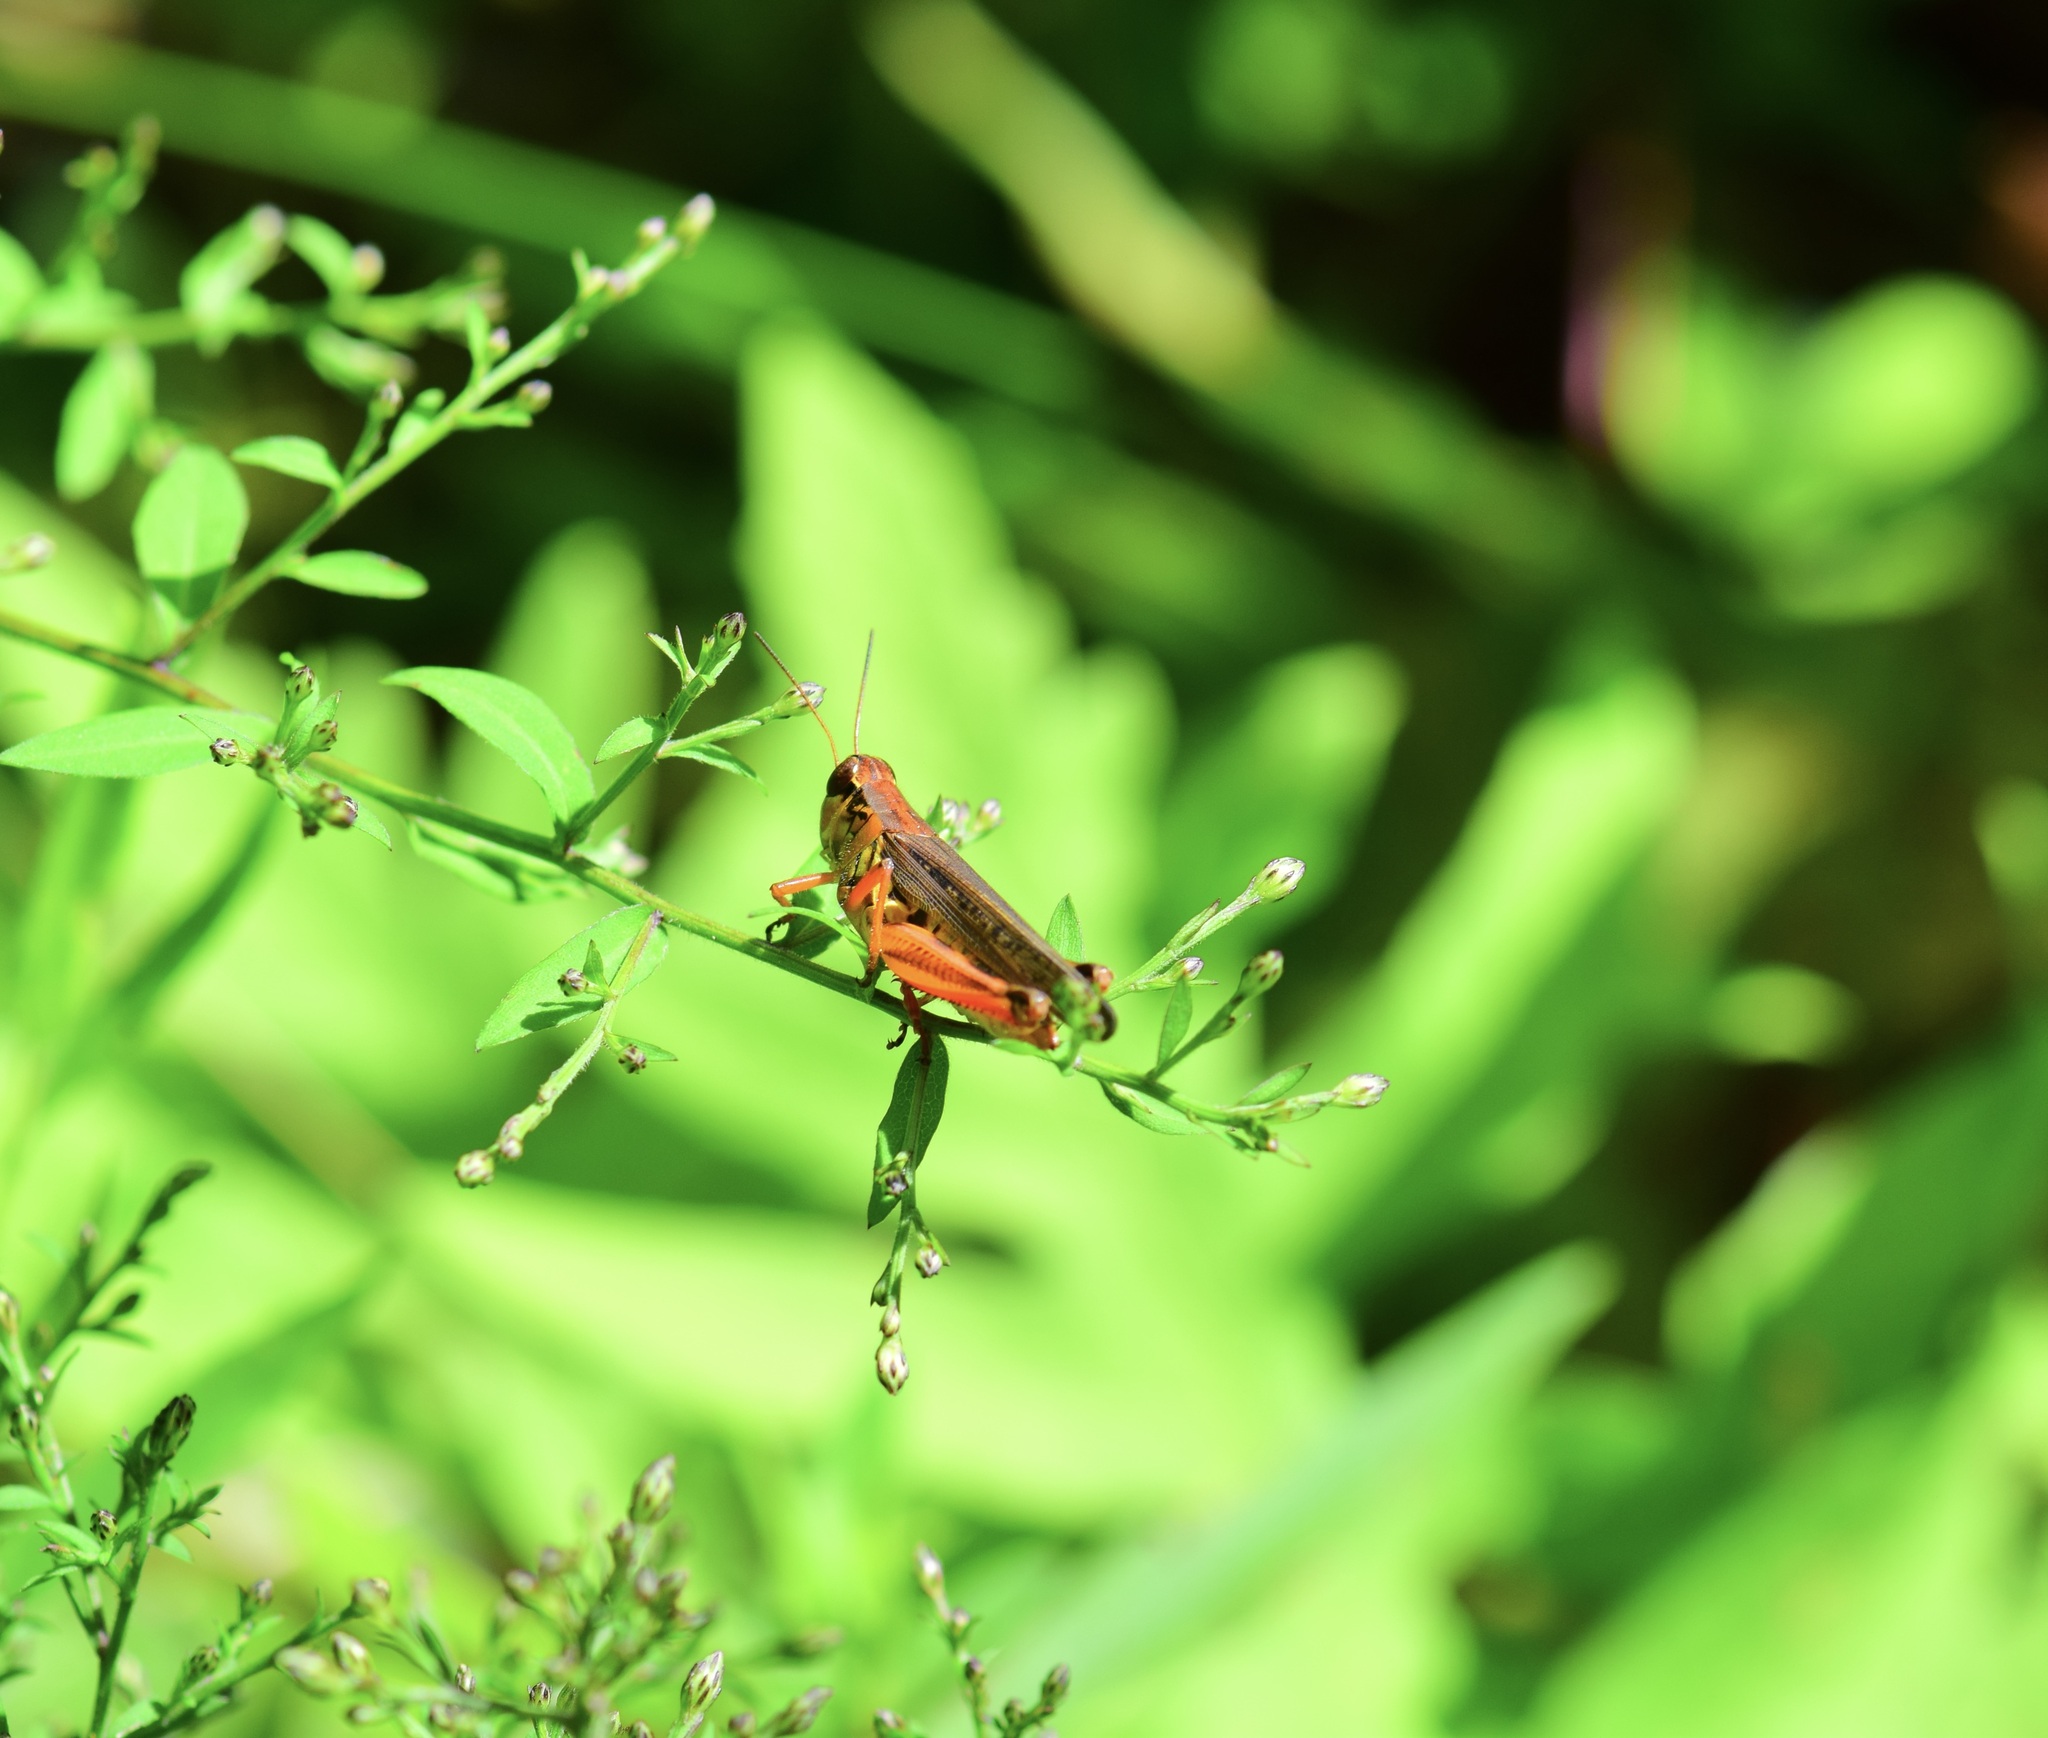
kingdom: Animalia
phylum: Arthropoda
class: Insecta
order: Orthoptera
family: Acrididae
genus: Melanoplus
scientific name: Melanoplus femurrubrum
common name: Red-legged grasshopper
